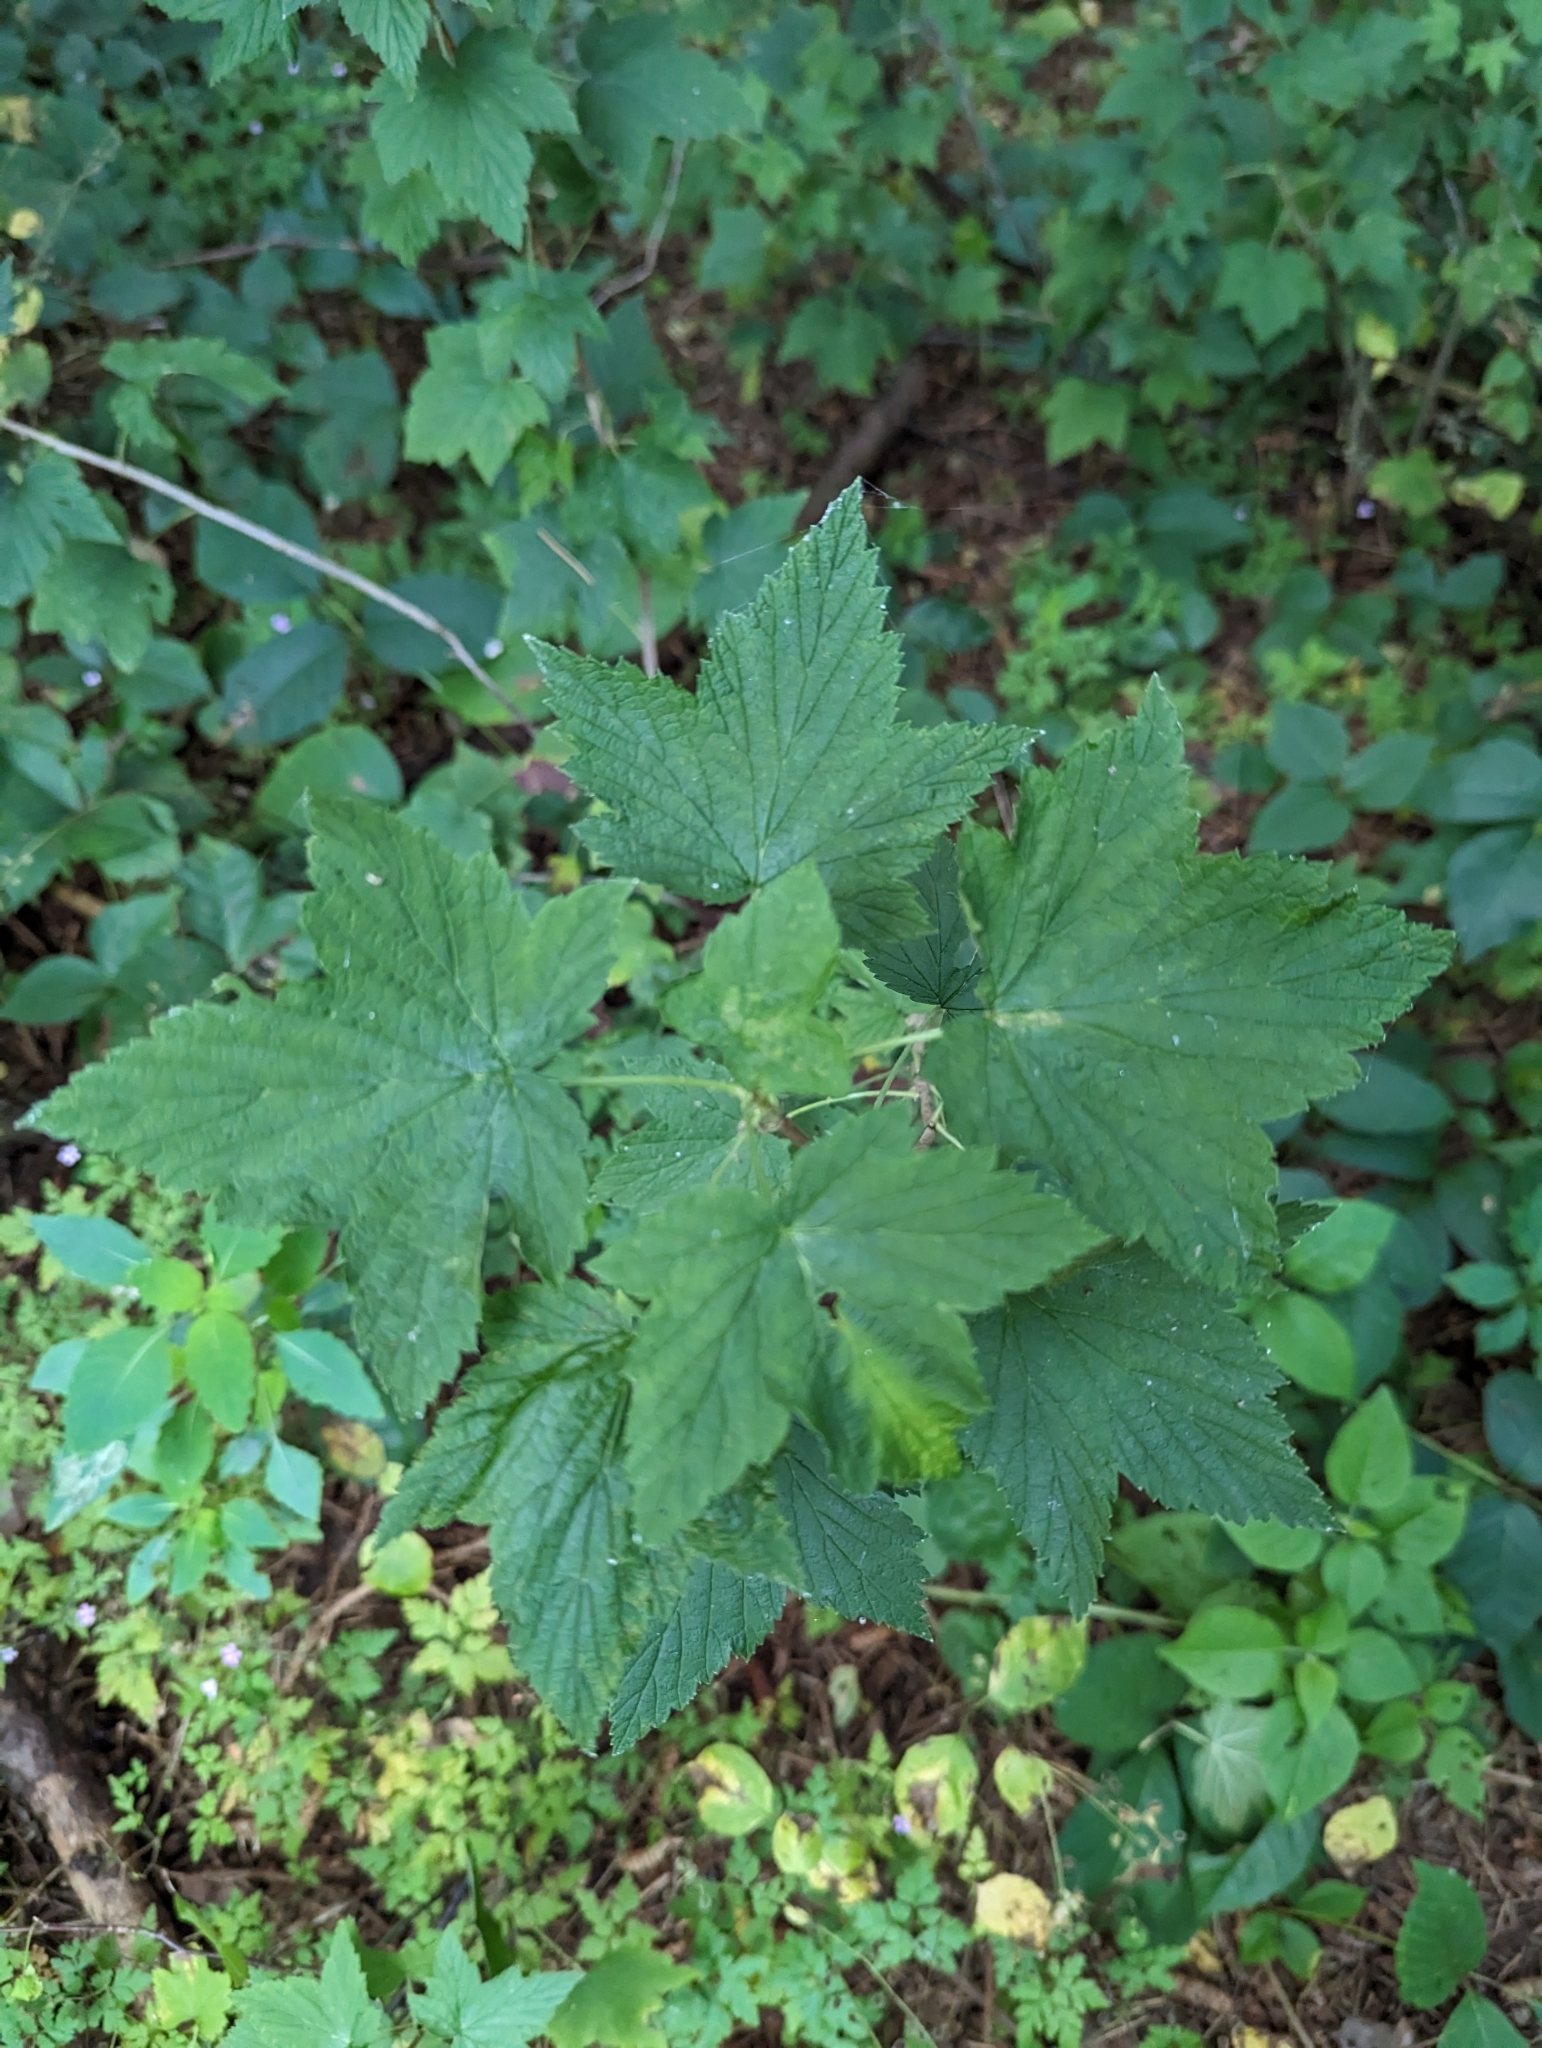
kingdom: Plantae
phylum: Tracheophyta
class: Magnoliopsida
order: Saxifragales
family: Grossulariaceae
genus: Ribes
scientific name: Ribes americanum
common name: American black currant
